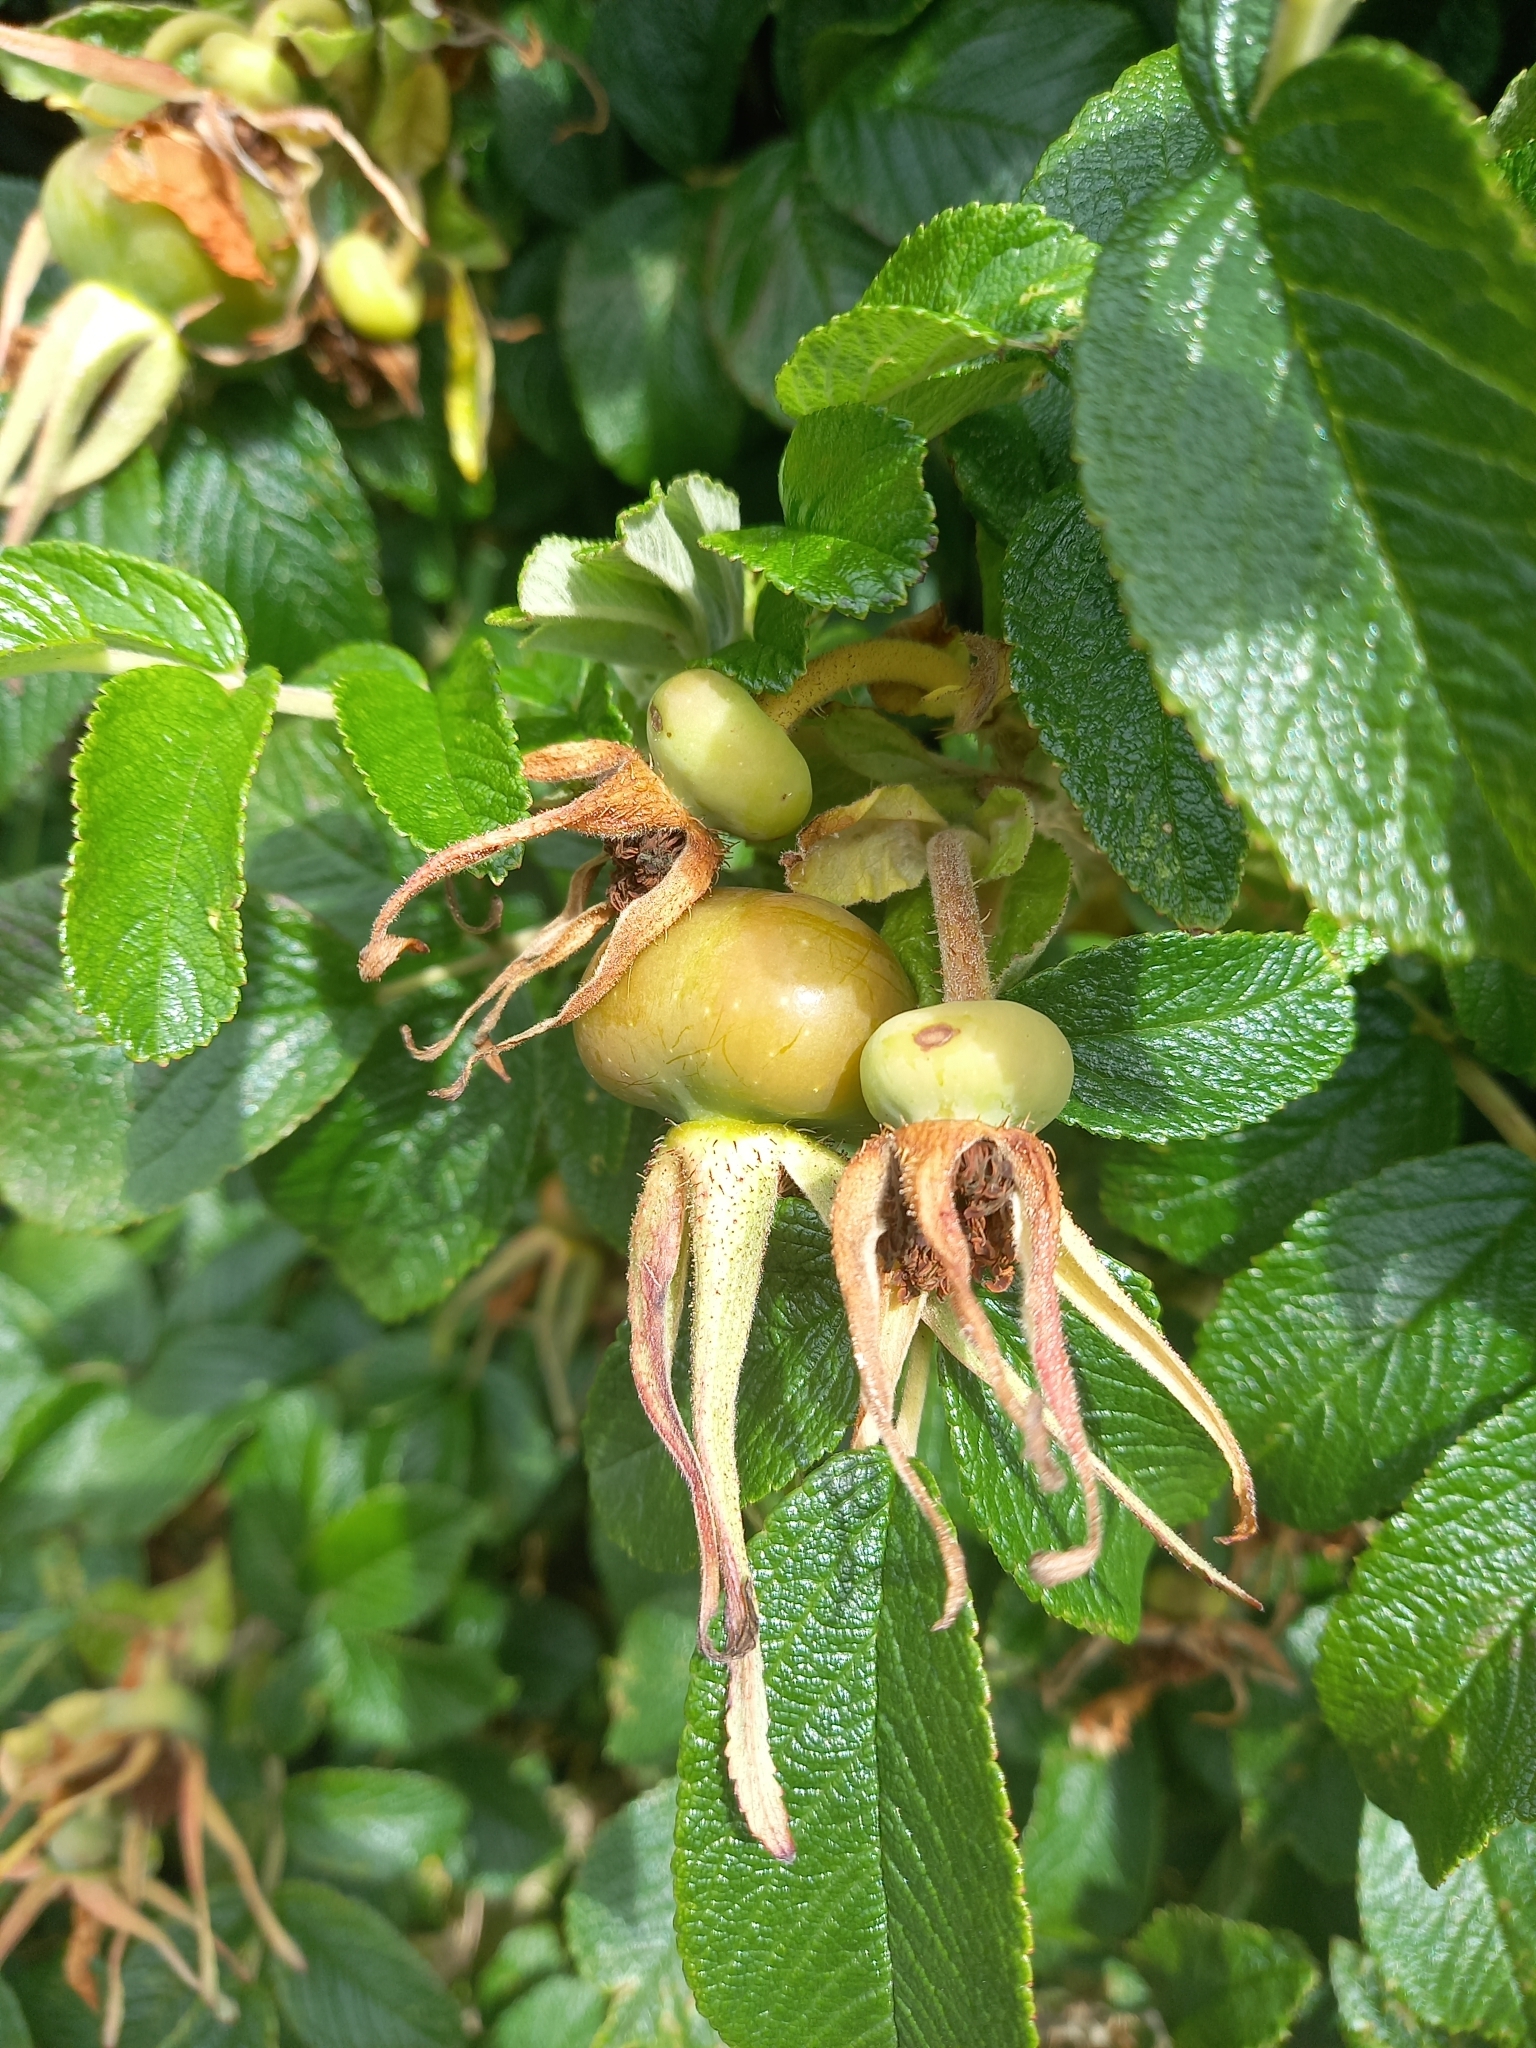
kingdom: Plantae
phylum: Tracheophyta
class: Magnoliopsida
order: Rosales
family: Rosaceae
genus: Rosa
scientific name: Rosa rugosa
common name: Japanese rose
